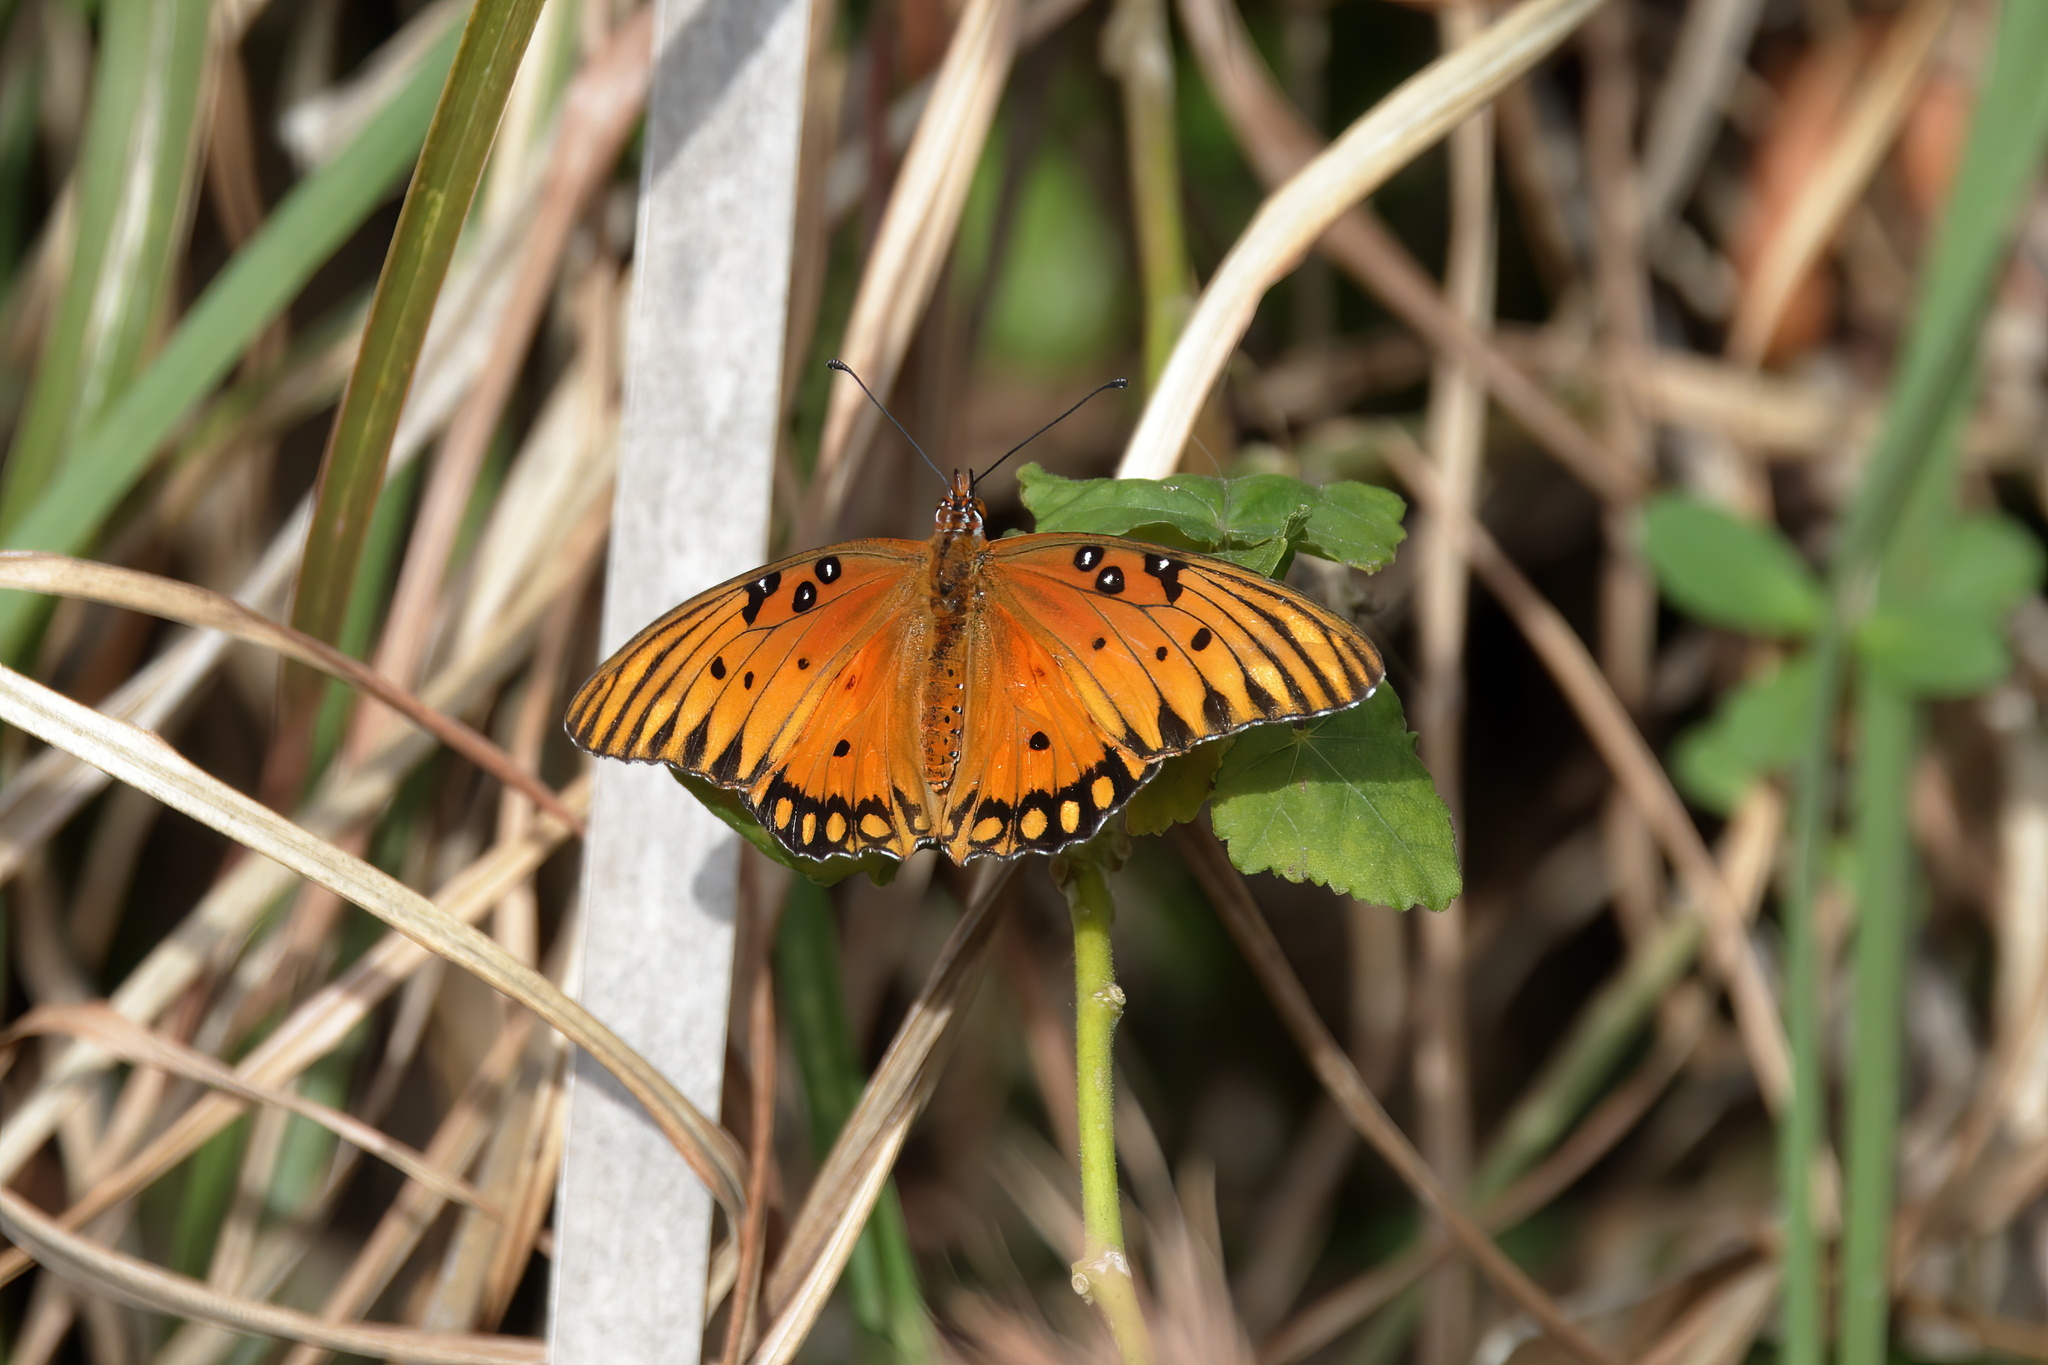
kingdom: Animalia
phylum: Arthropoda
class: Insecta
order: Lepidoptera
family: Nymphalidae
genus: Dione
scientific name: Dione vanillae
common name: Gulf fritillary
